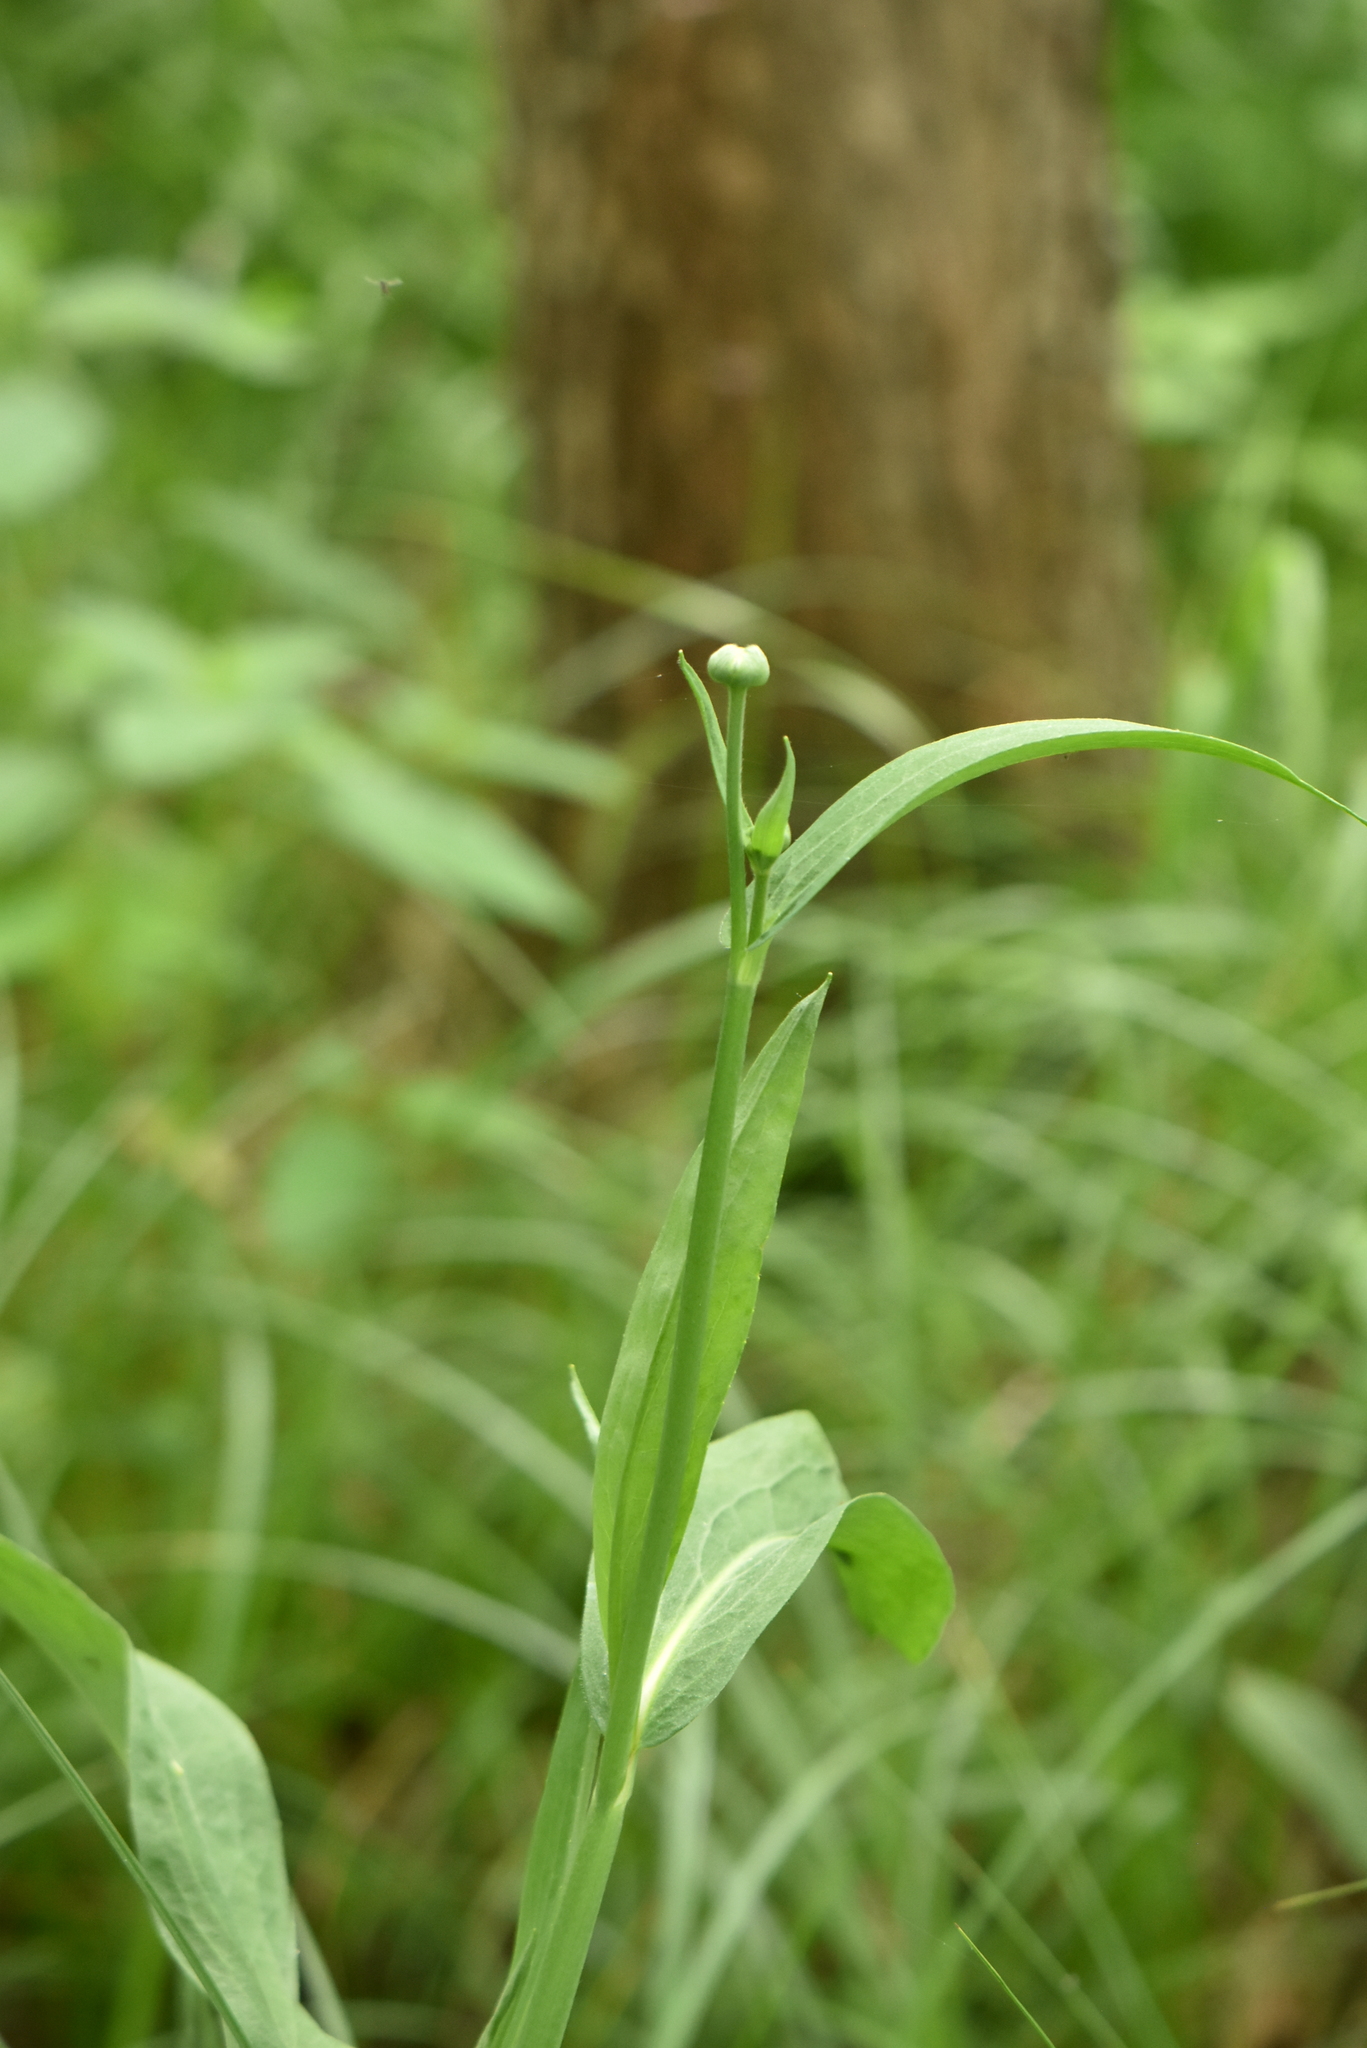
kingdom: Plantae
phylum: Tracheophyta
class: Magnoliopsida
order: Ranunculales
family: Ranunculaceae
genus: Ranunculus
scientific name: Ranunculus lingua
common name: Greater spearwort
